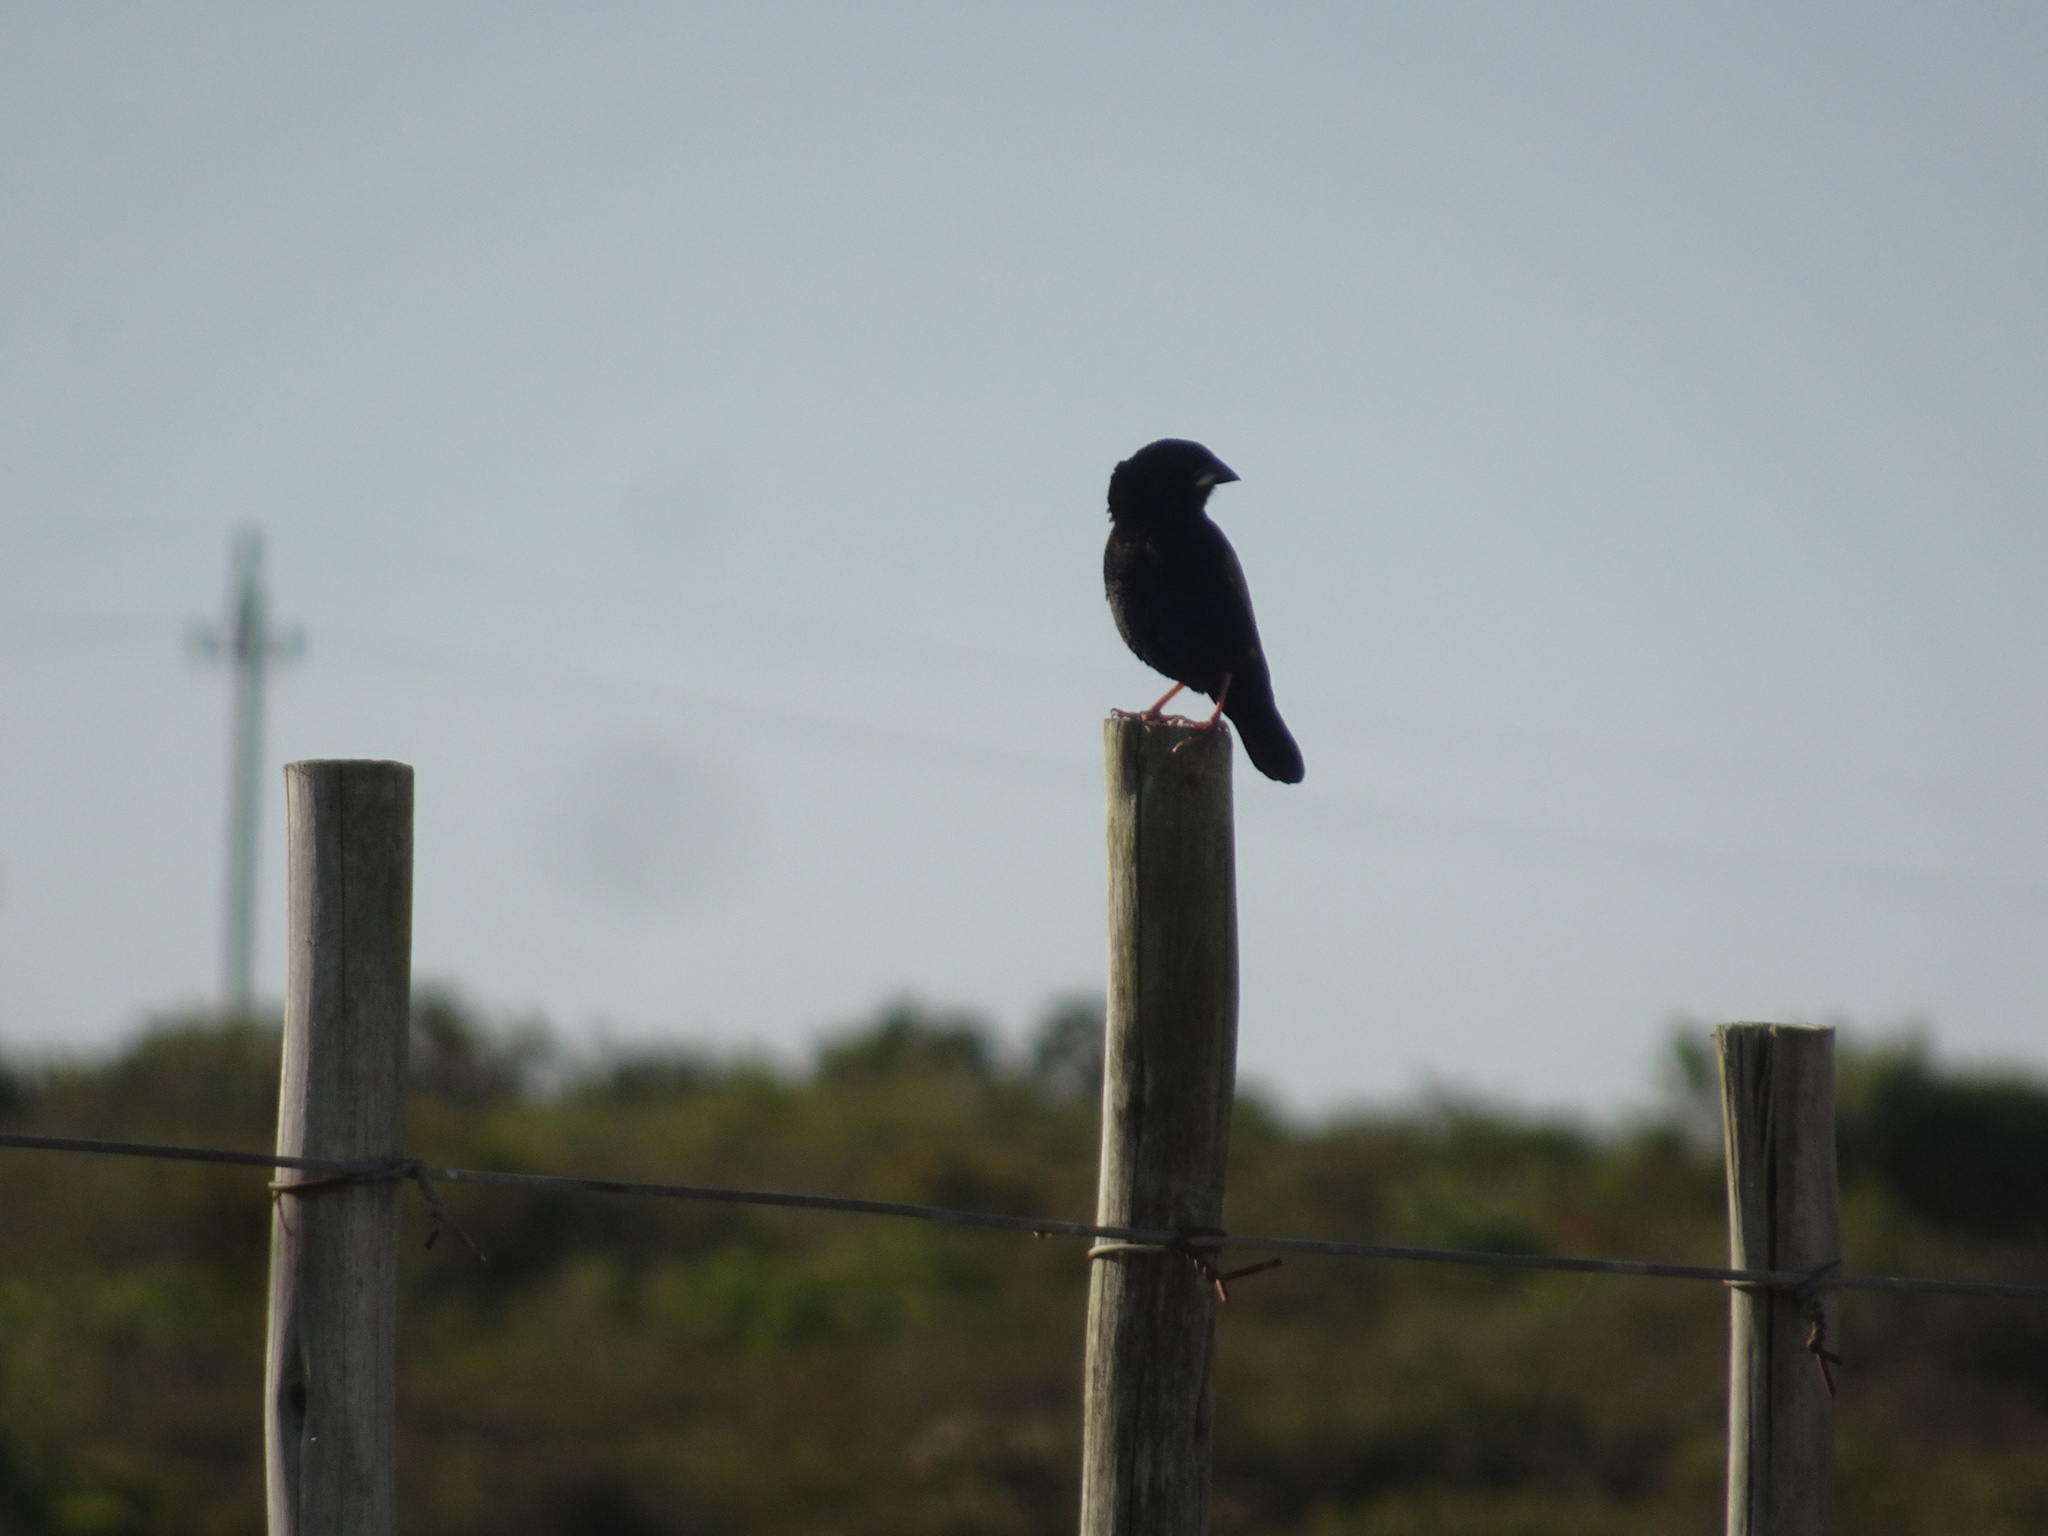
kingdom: Animalia
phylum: Chordata
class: Aves
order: Passeriformes
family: Ploceidae
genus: Euplectes
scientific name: Euplectes capensis
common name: Yellow bishop
